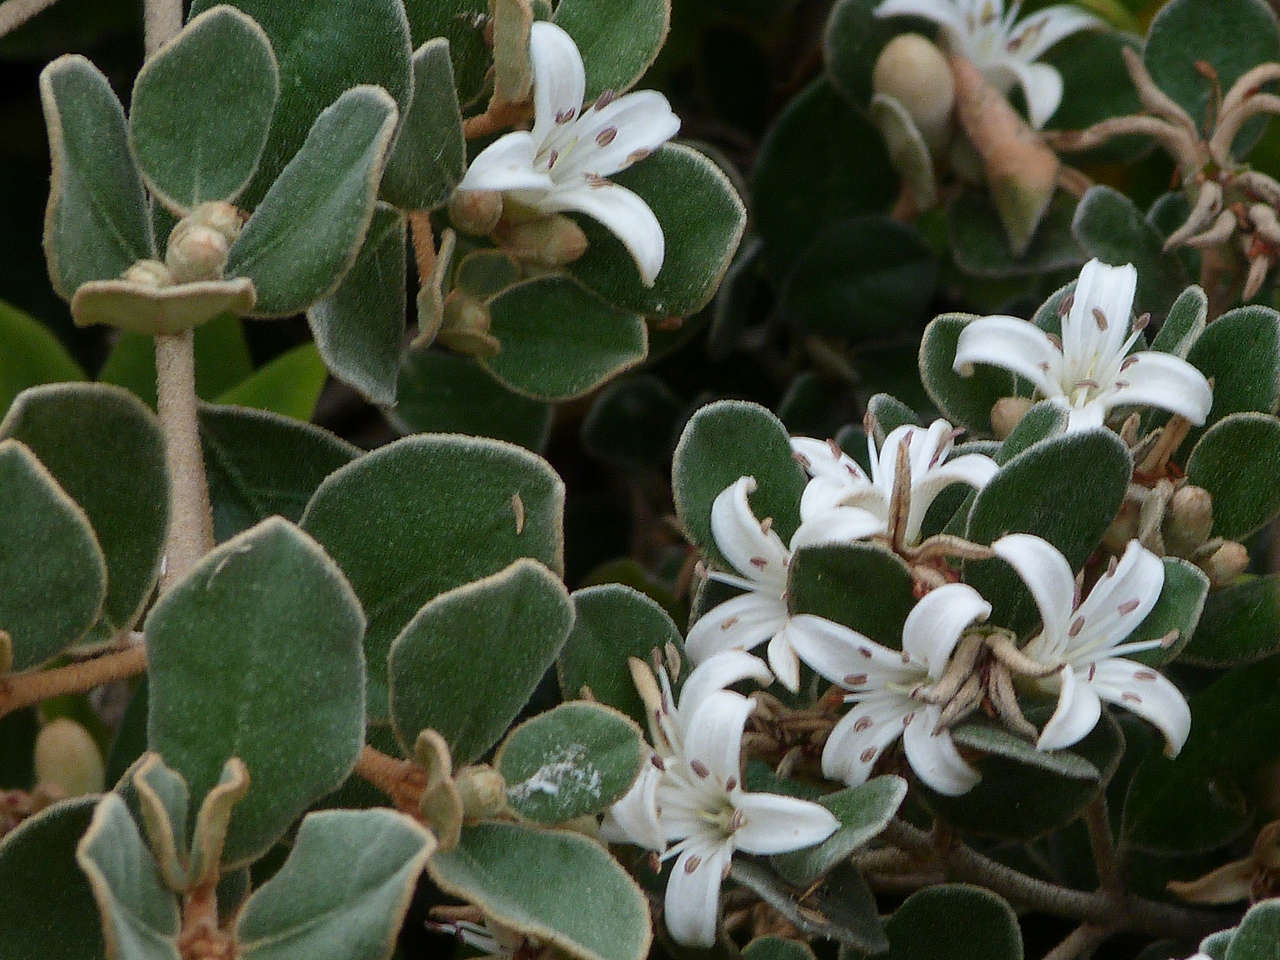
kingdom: Plantae
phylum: Tracheophyta
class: Magnoliopsida
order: Sapindales
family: Rutaceae
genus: Correa
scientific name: Correa alba
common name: White correa
